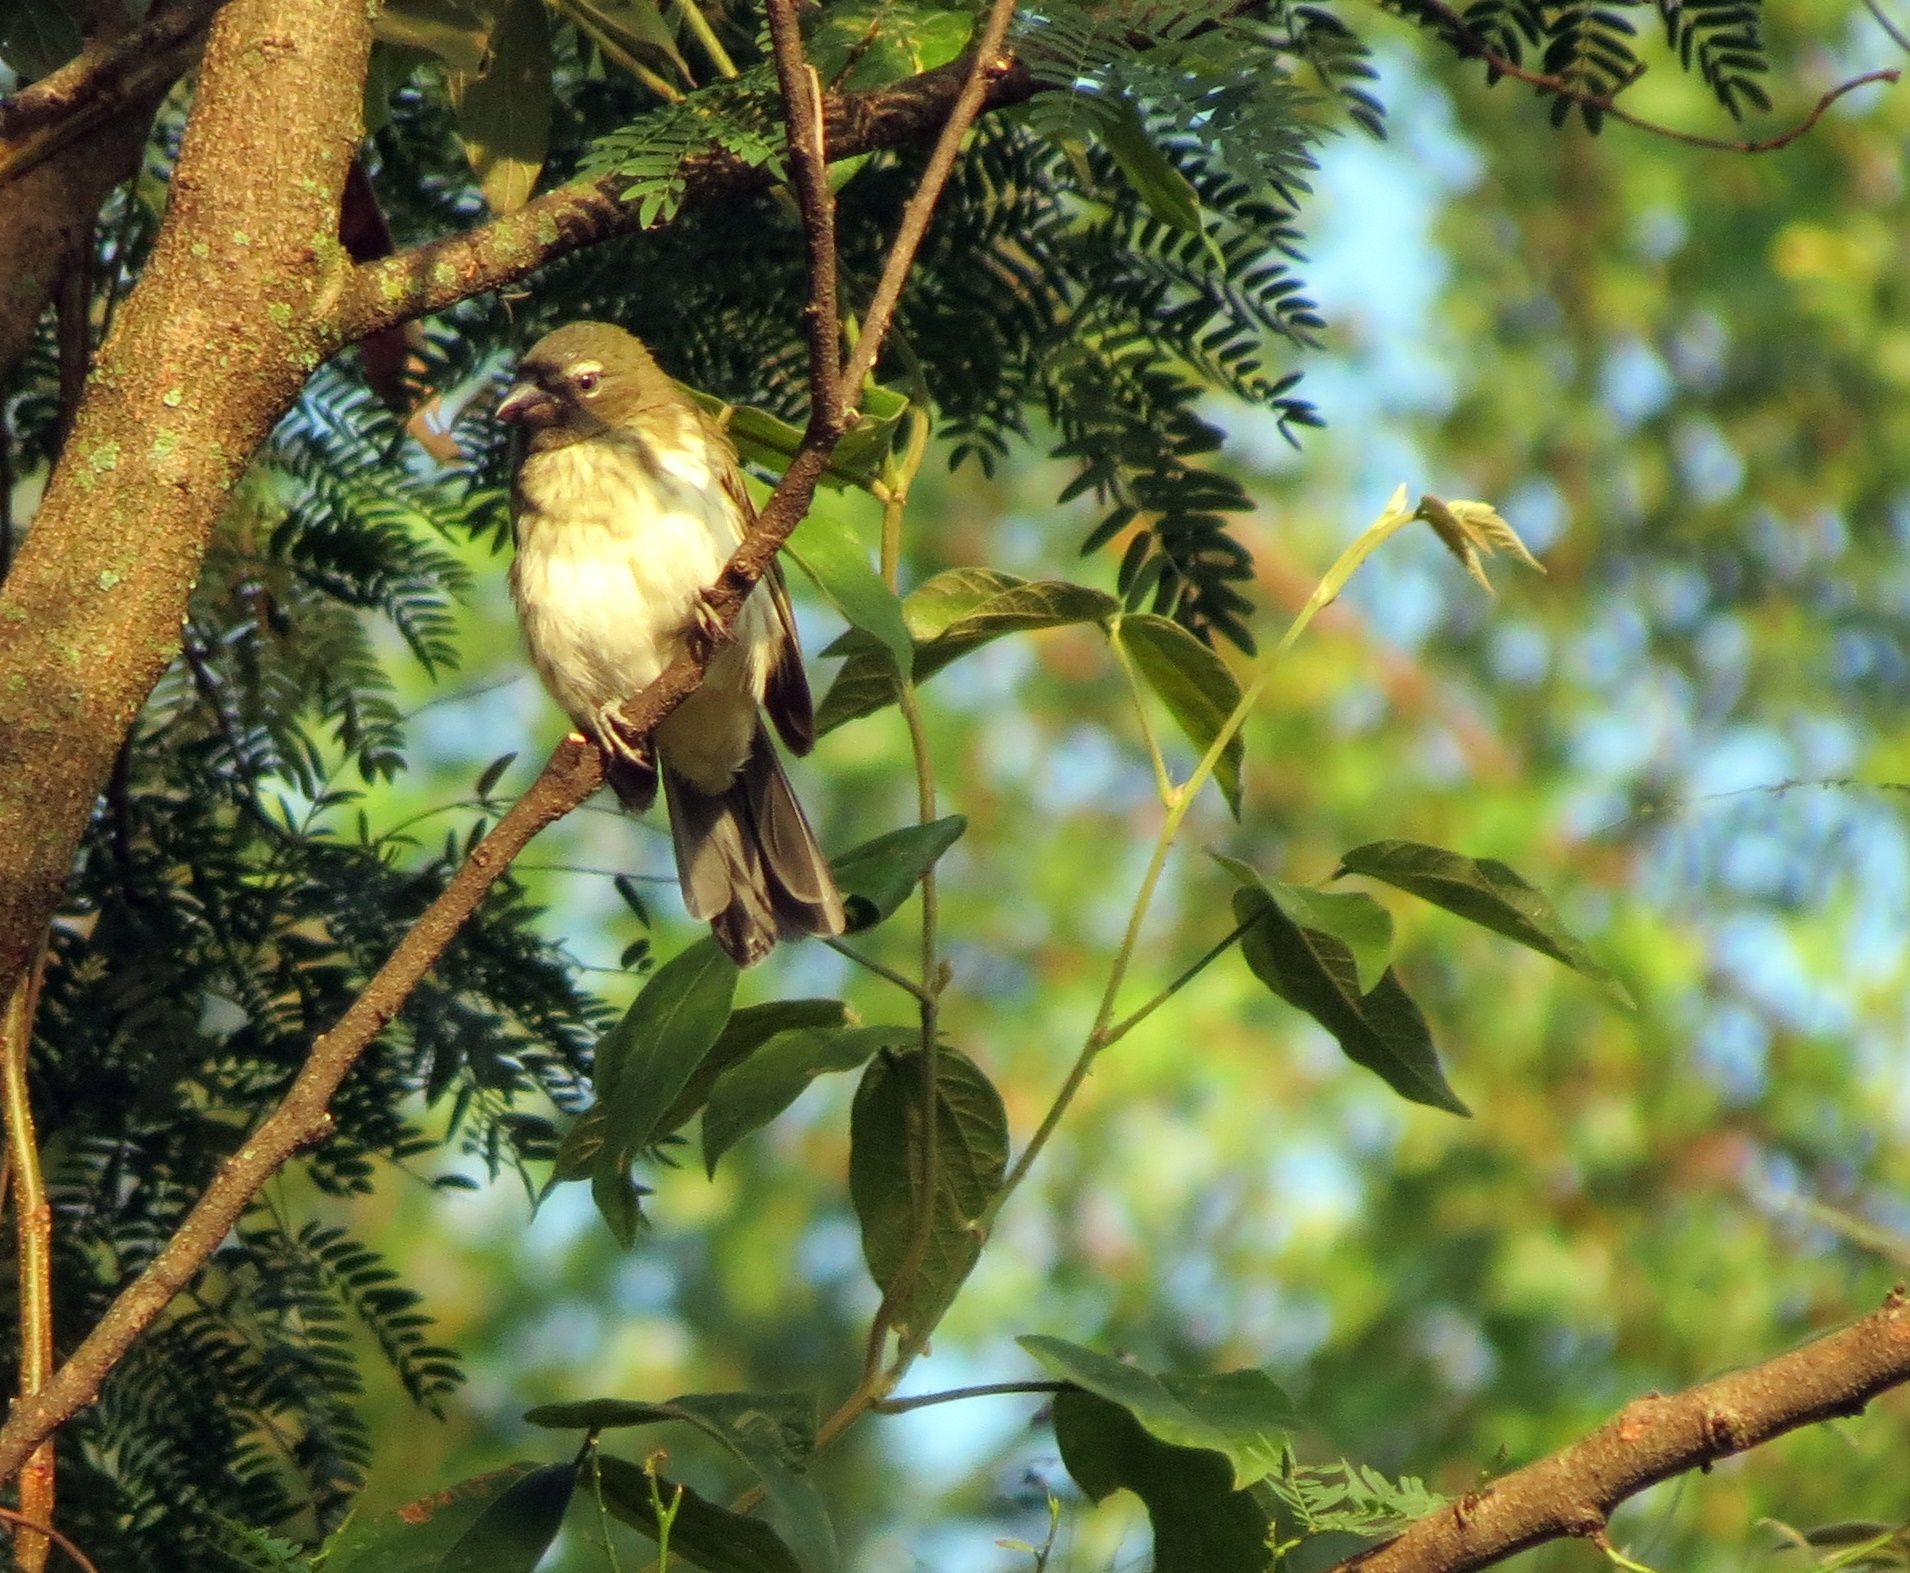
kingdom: Animalia
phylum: Chordata
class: Aves
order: Passeriformes
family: Thraupidae
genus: Saltator
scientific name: Saltator striatipectus
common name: Streaked saltator
